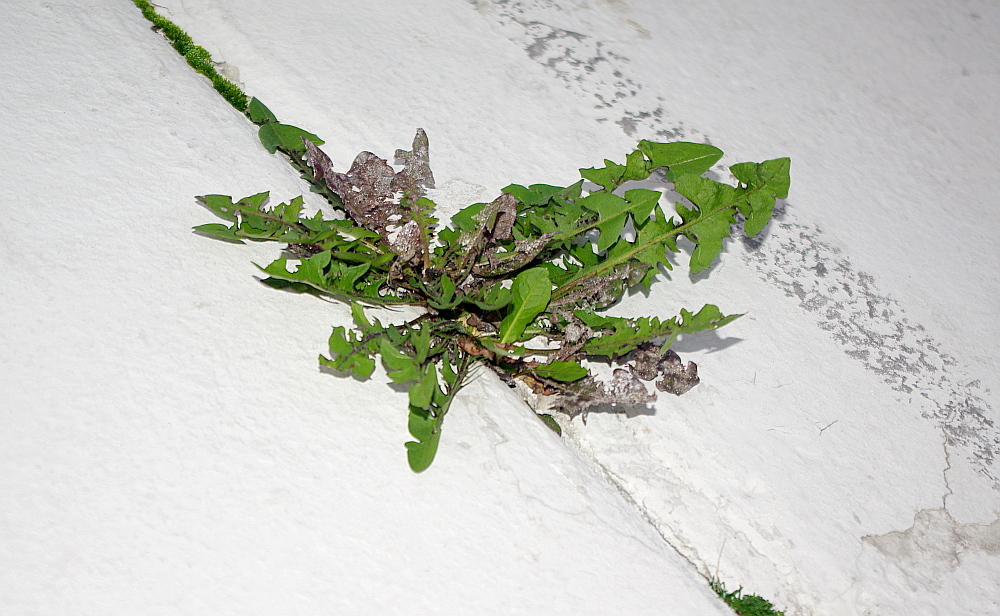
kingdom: Plantae
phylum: Tracheophyta
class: Magnoliopsida
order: Asterales
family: Asteraceae
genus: Taraxacum
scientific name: Taraxacum officinale
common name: Common dandelion
